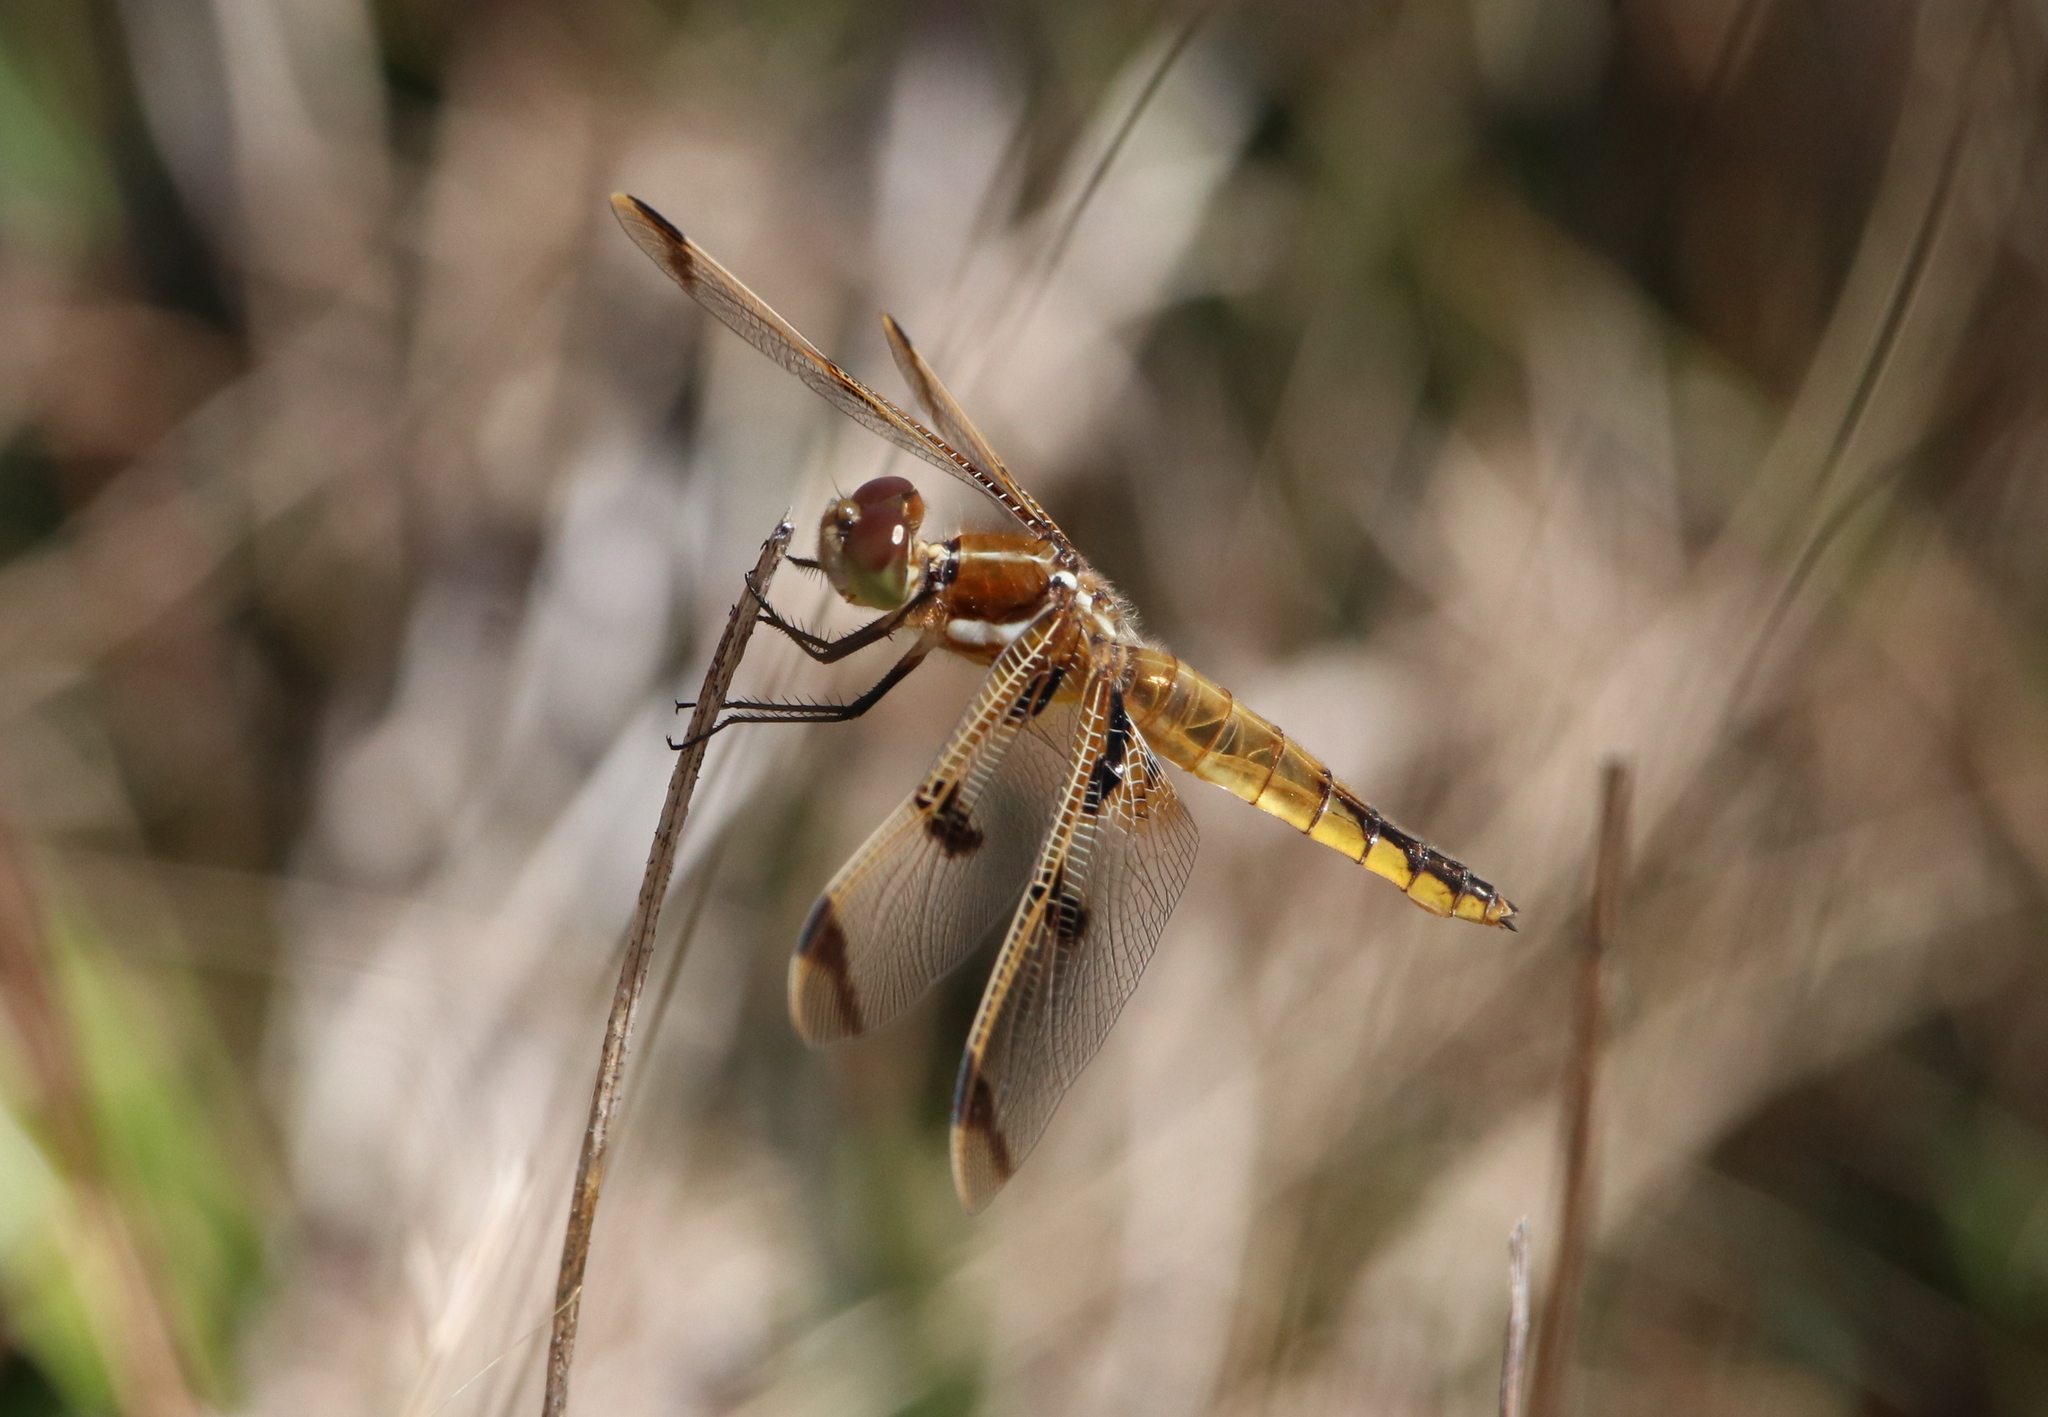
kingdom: Animalia
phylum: Arthropoda
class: Insecta
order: Odonata
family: Libellulidae
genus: Libellula
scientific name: Libellula semifasciata
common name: Painted skimmer
